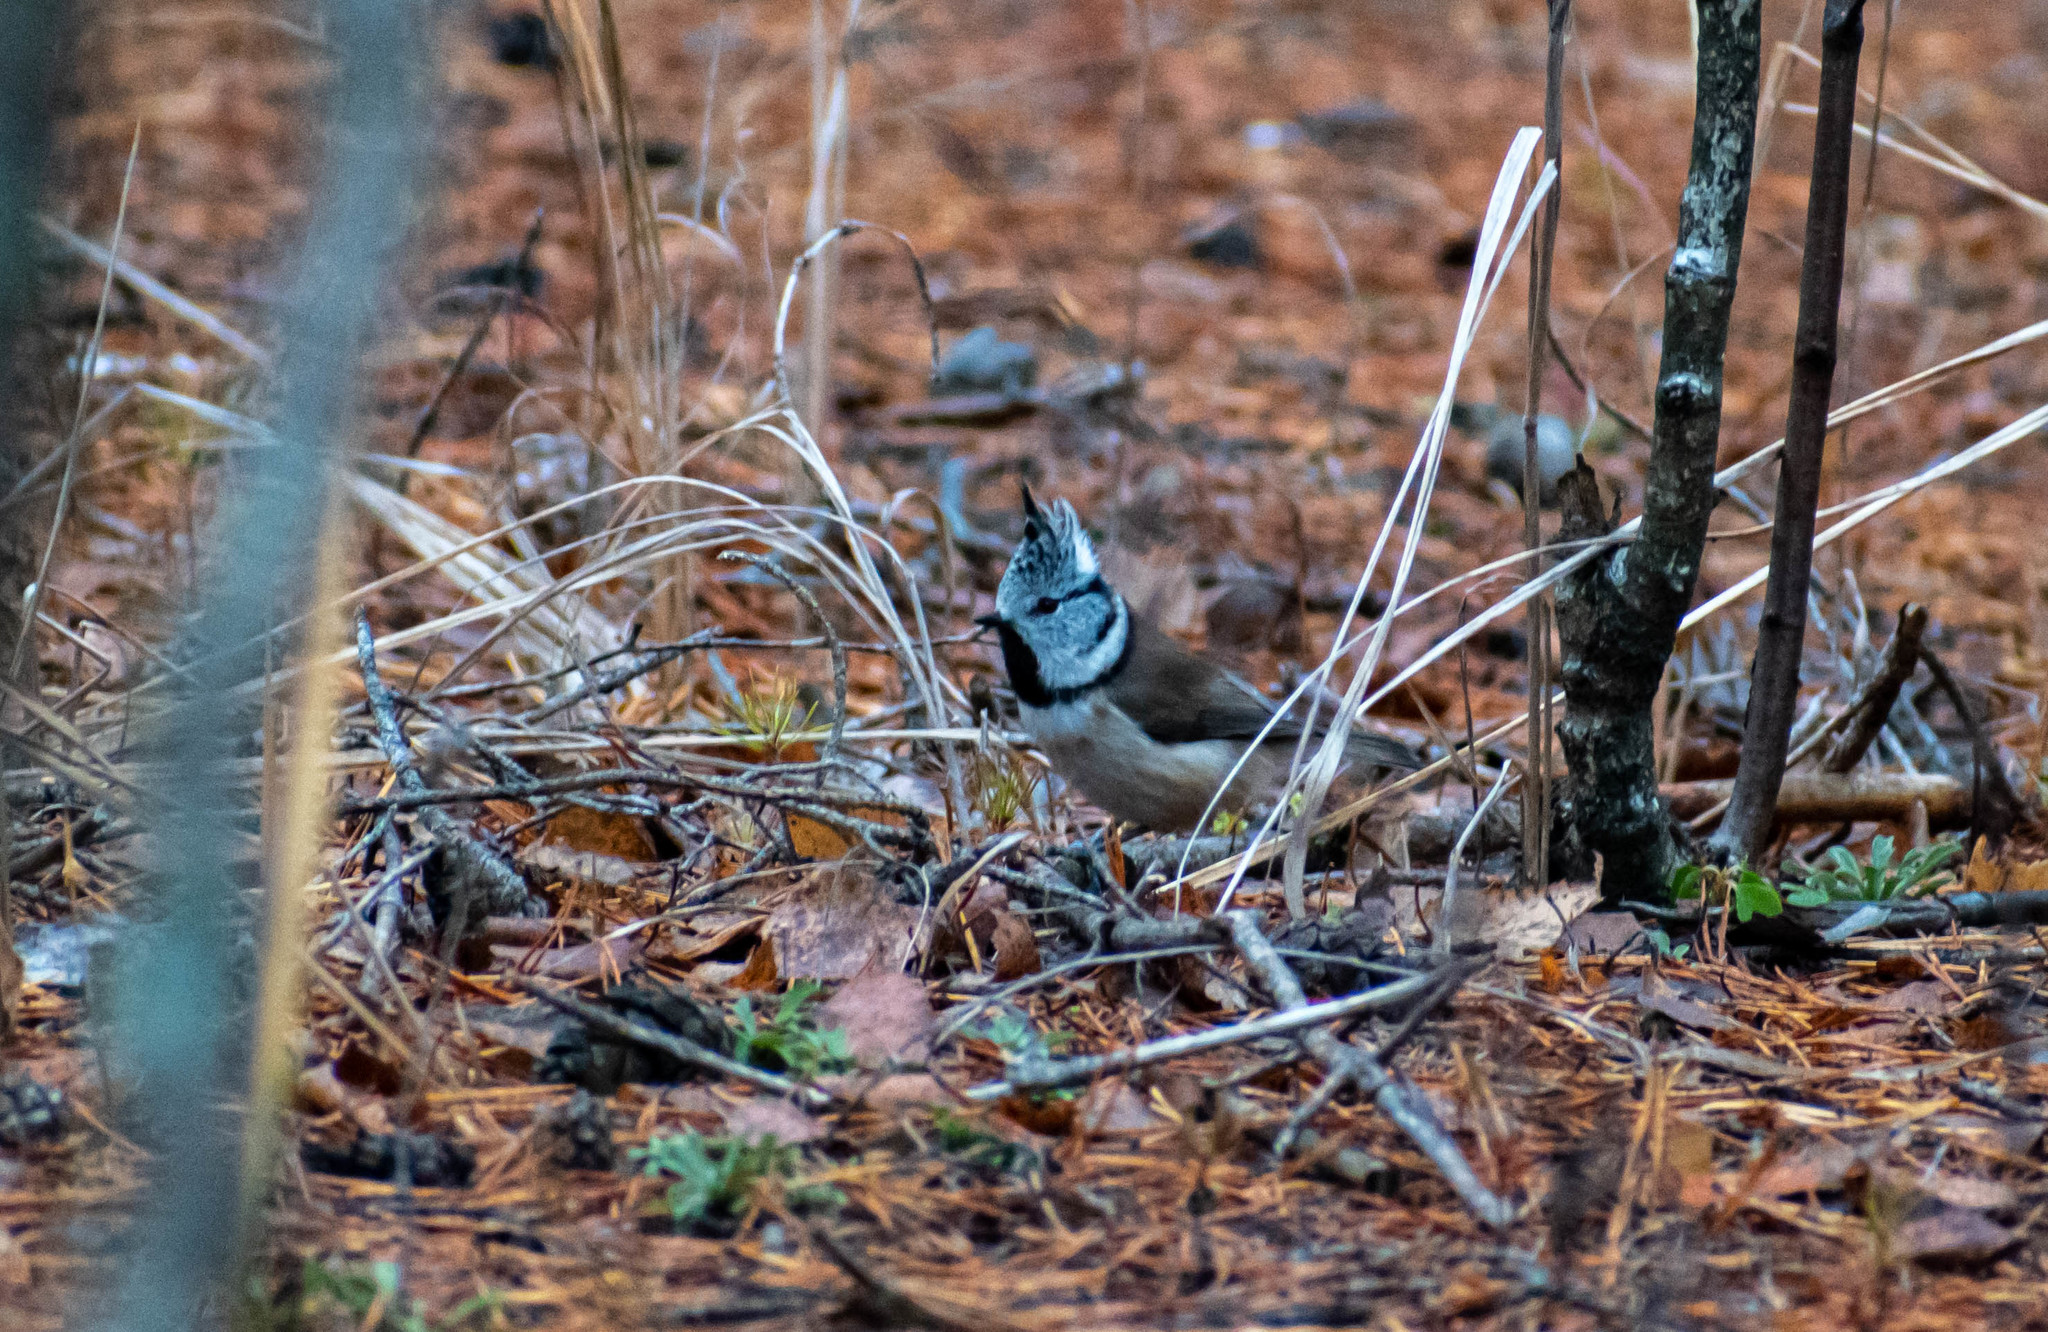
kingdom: Animalia
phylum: Chordata
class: Aves
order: Passeriformes
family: Paridae
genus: Lophophanes
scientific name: Lophophanes cristatus
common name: European crested tit
